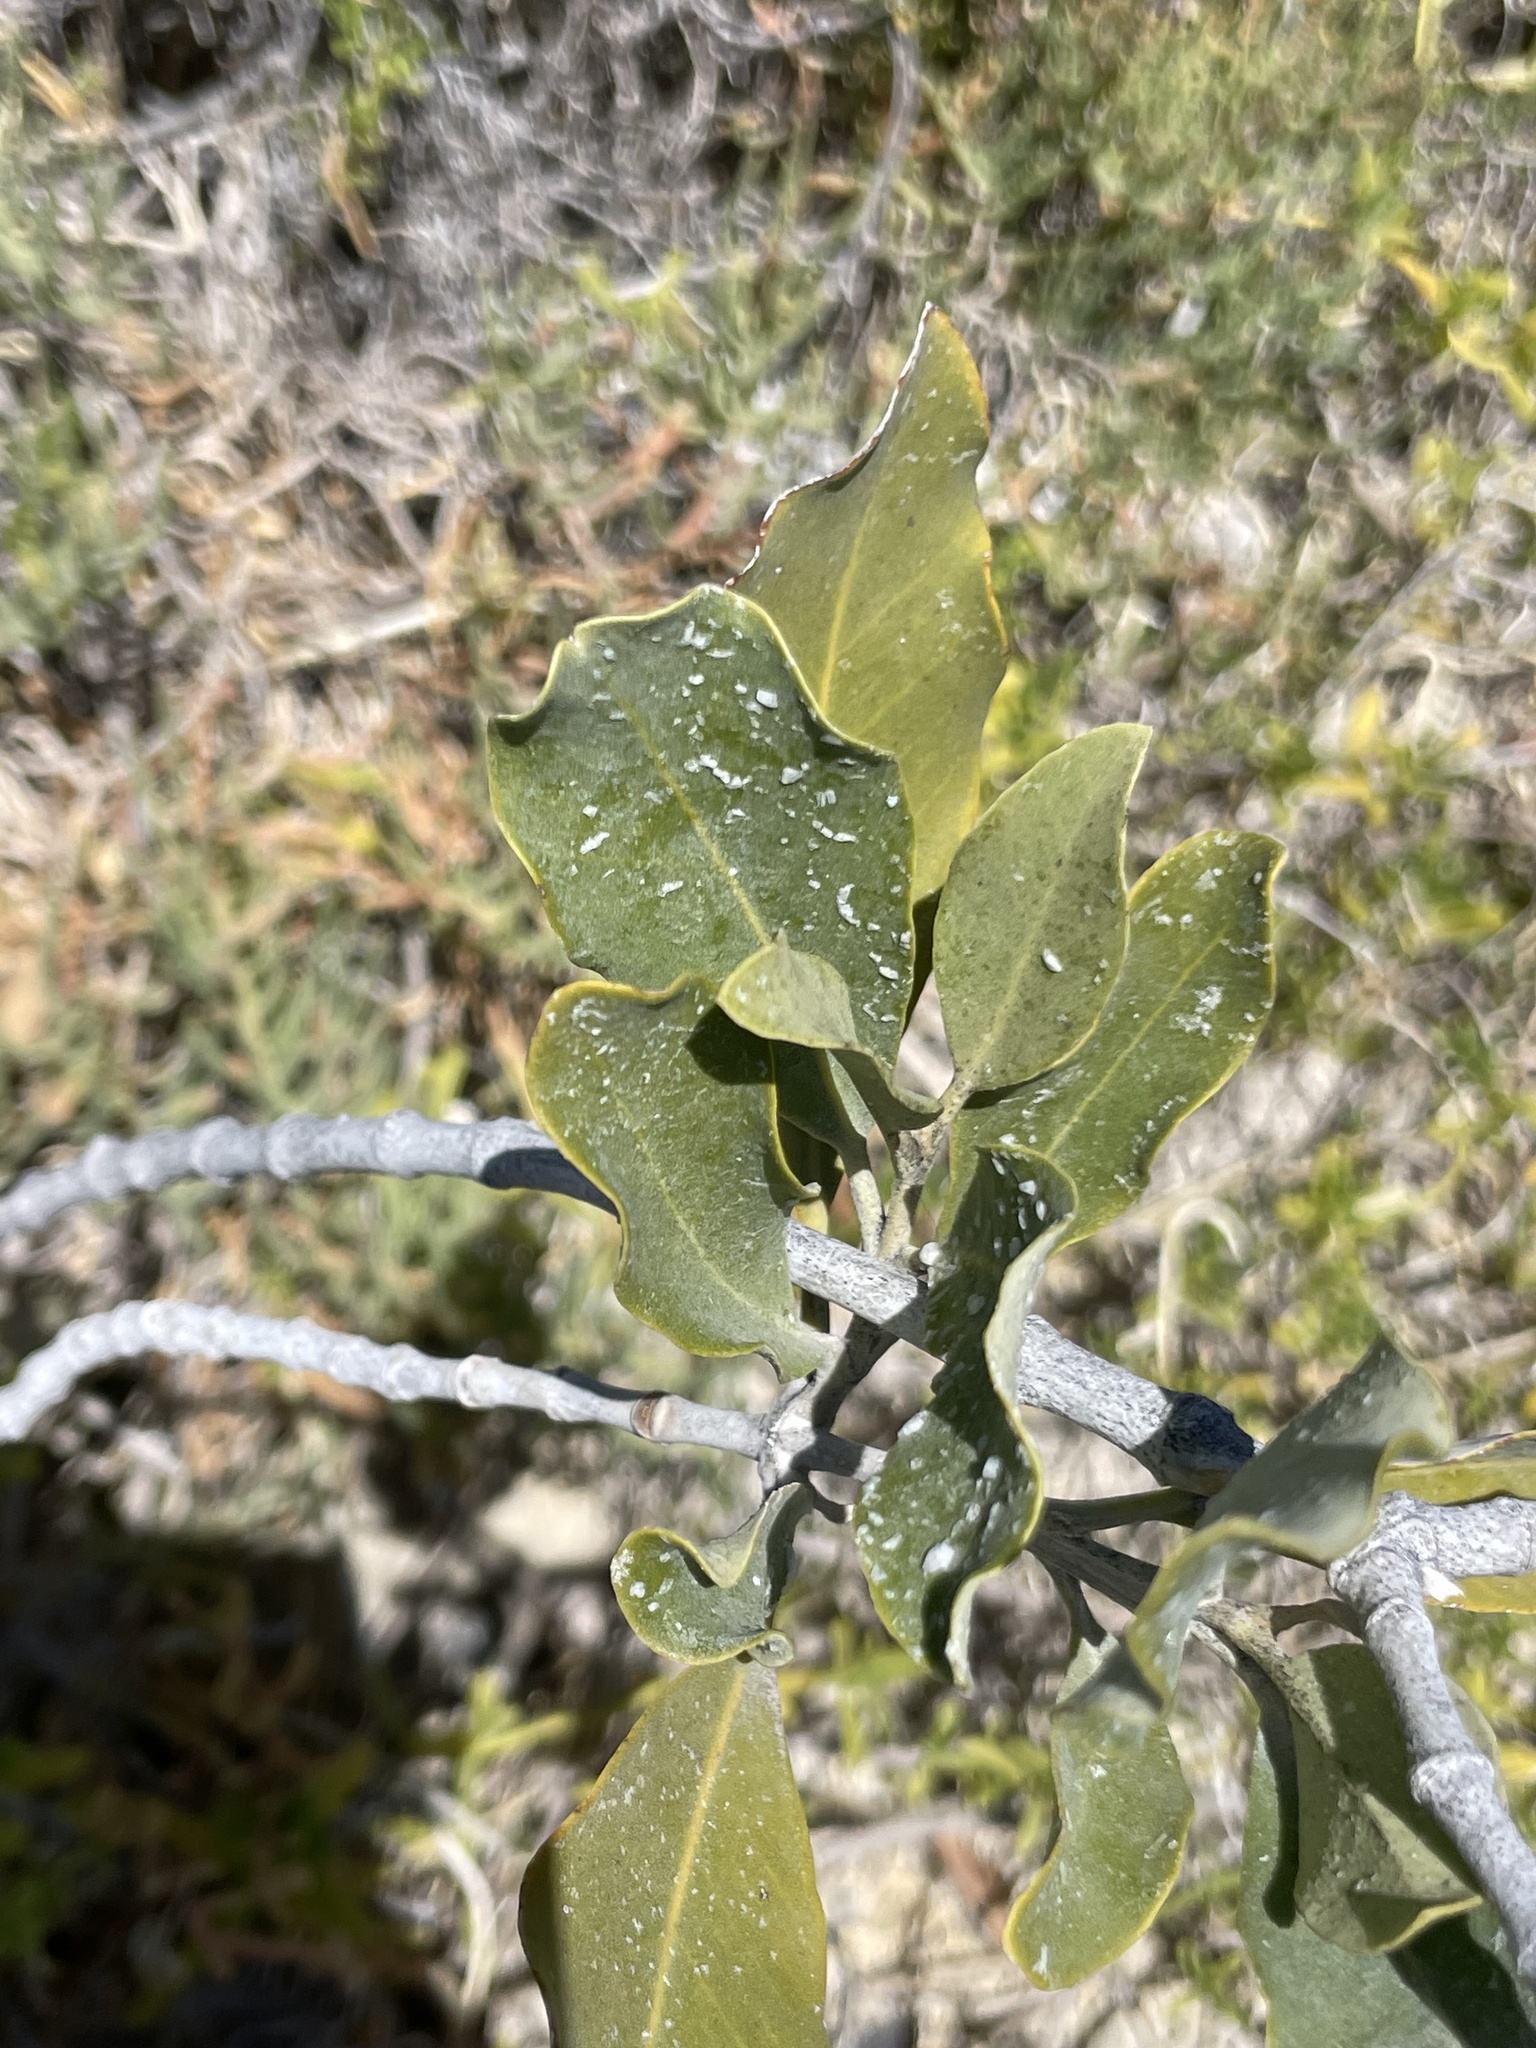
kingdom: Plantae
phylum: Tracheophyta
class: Magnoliopsida
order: Lamiales
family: Acanthaceae
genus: Avicennia
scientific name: Avicennia germinans
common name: Black mangrove
